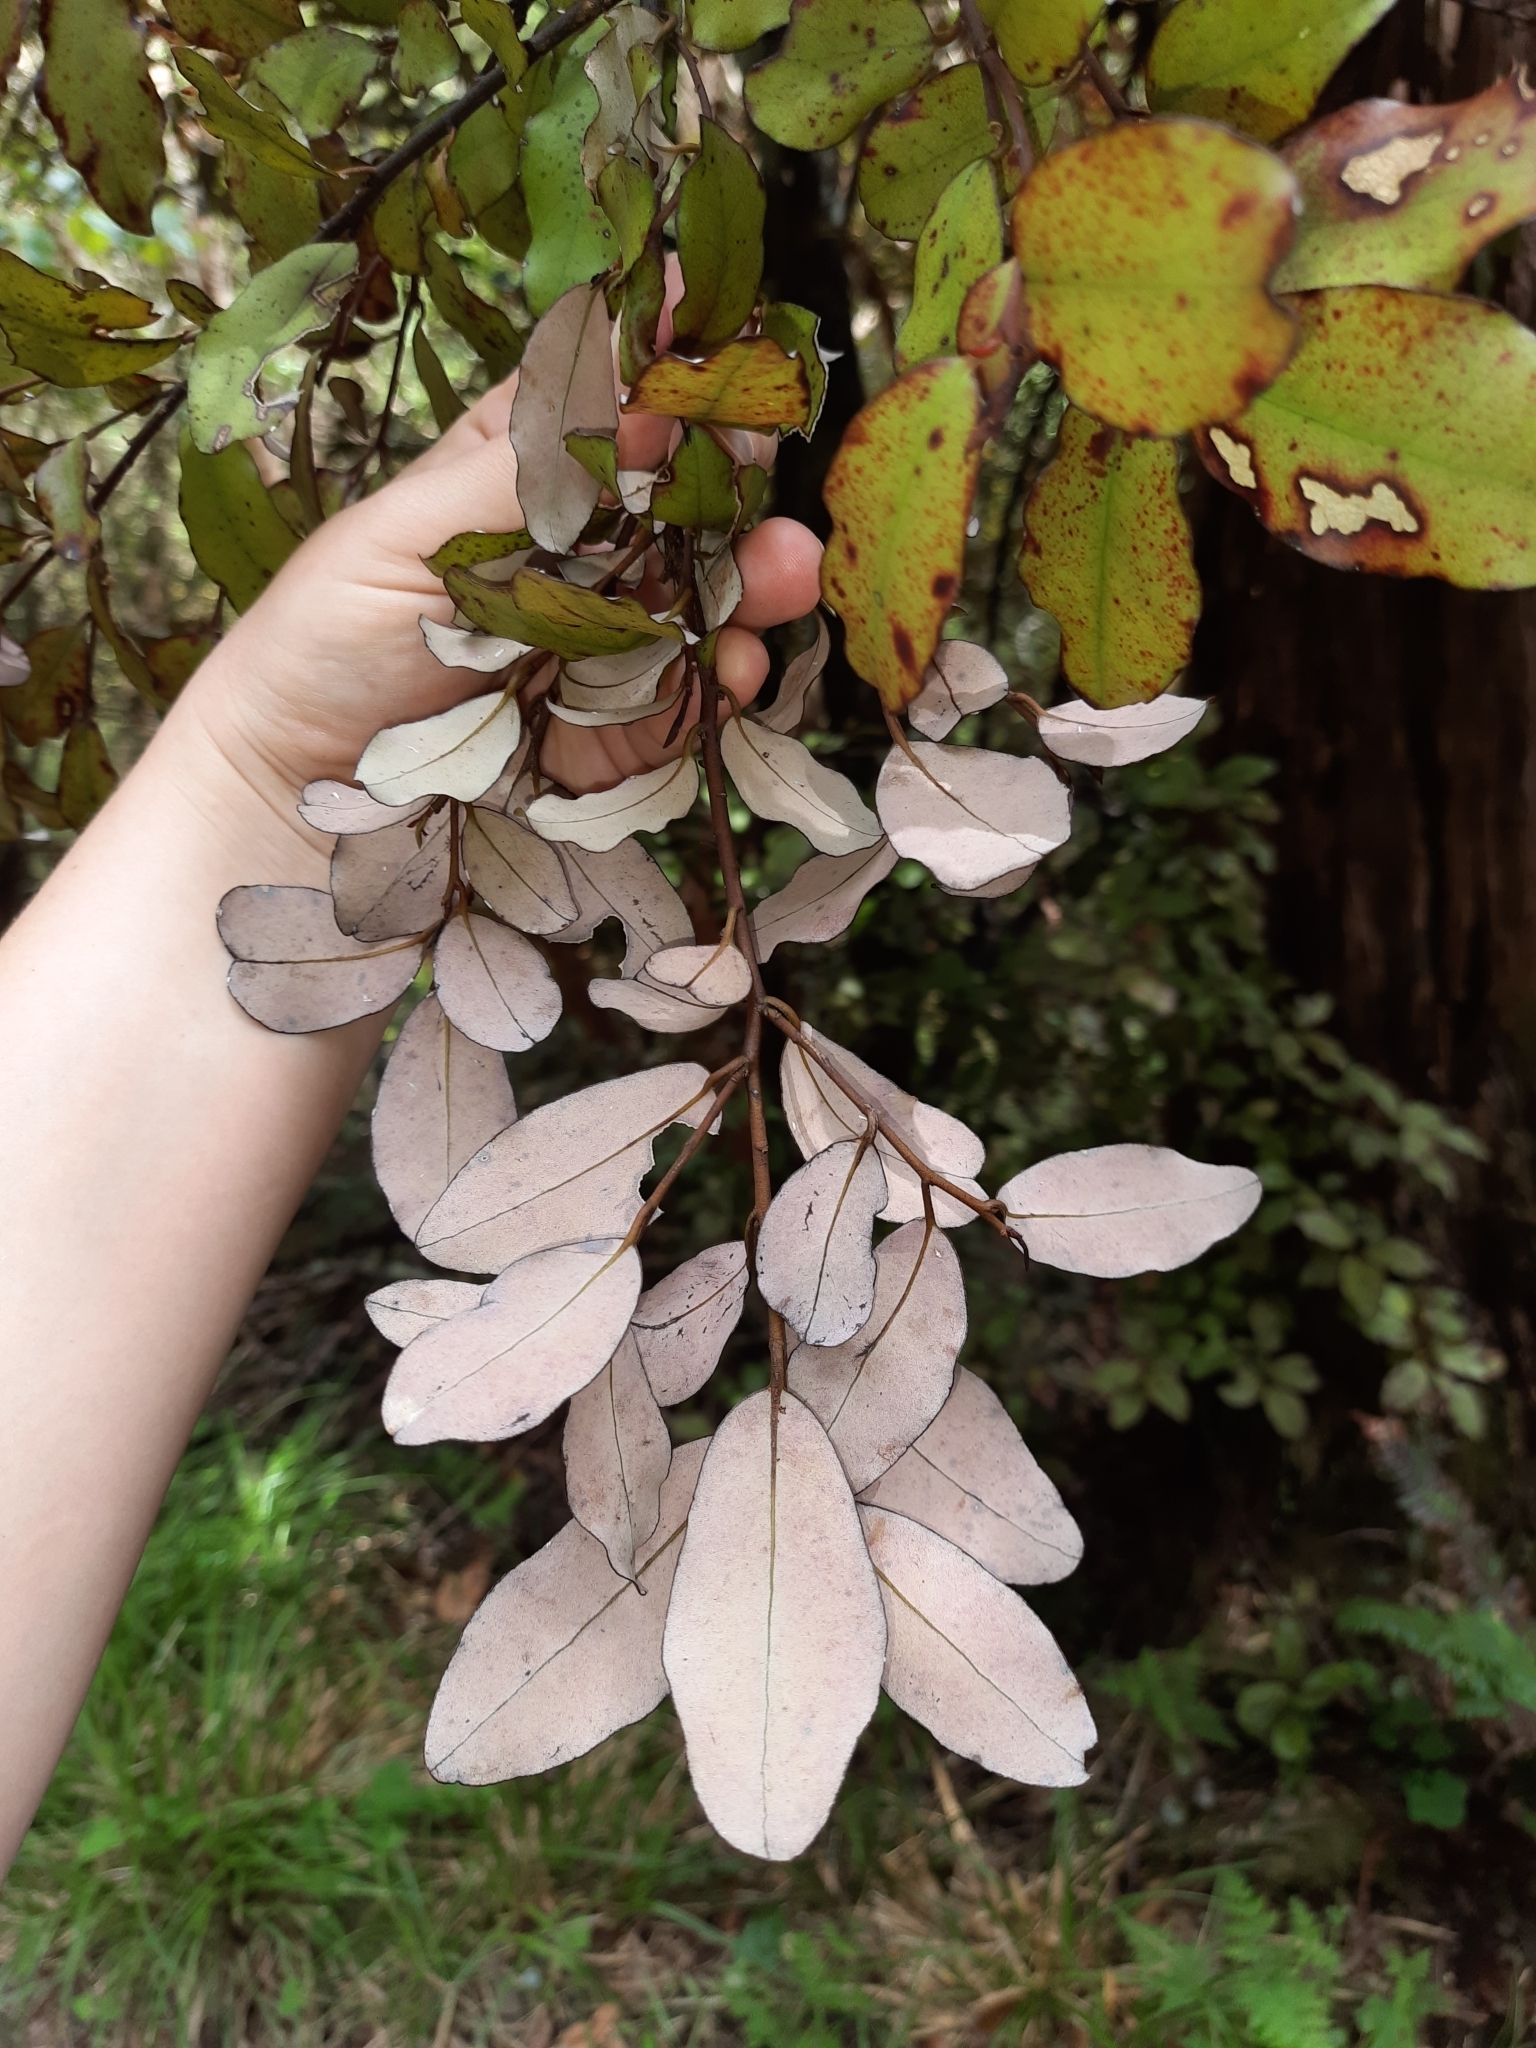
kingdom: Plantae
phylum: Tracheophyta
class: Magnoliopsida
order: Canellales
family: Winteraceae
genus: Pseudowintera
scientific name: Pseudowintera colorata
